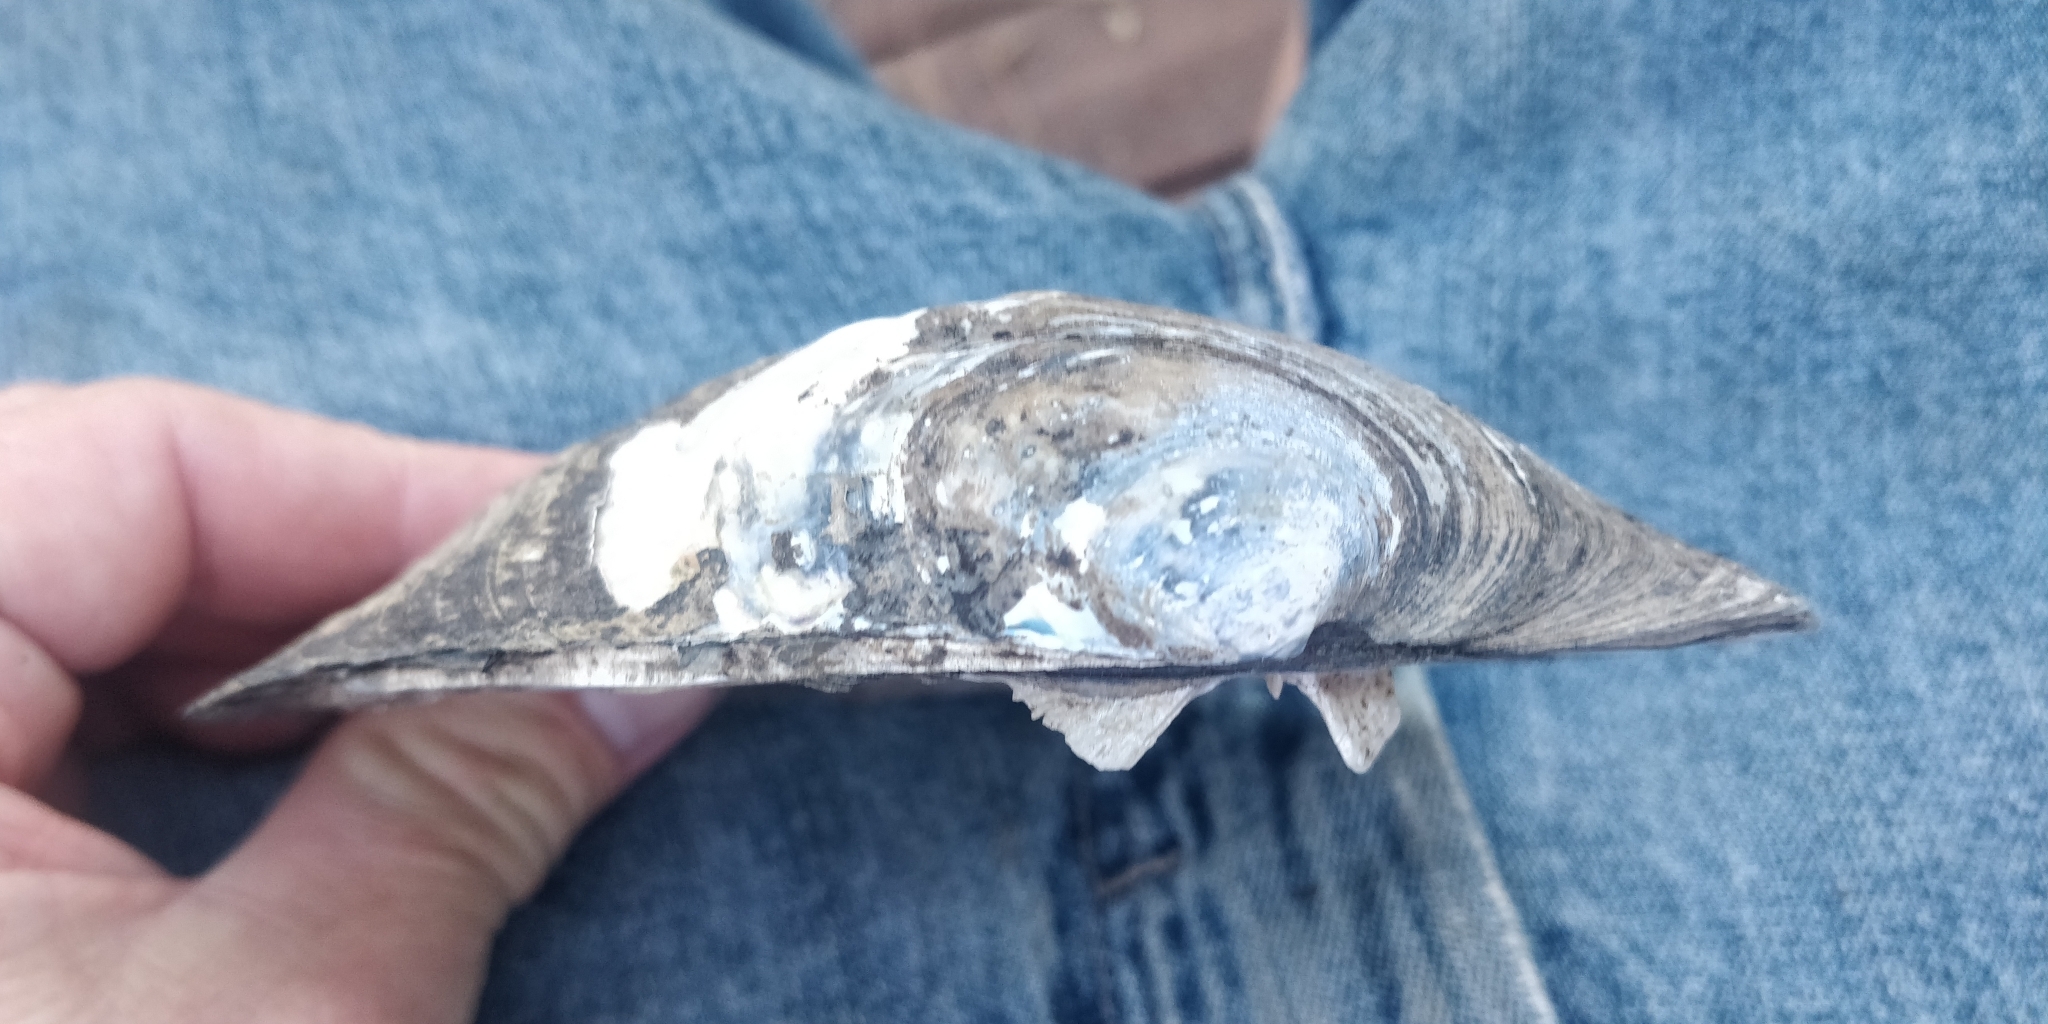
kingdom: Animalia
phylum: Mollusca
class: Bivalvia
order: Unionida
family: Unionidae
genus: Amblema
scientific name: Amblema plicata
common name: Threeridge
